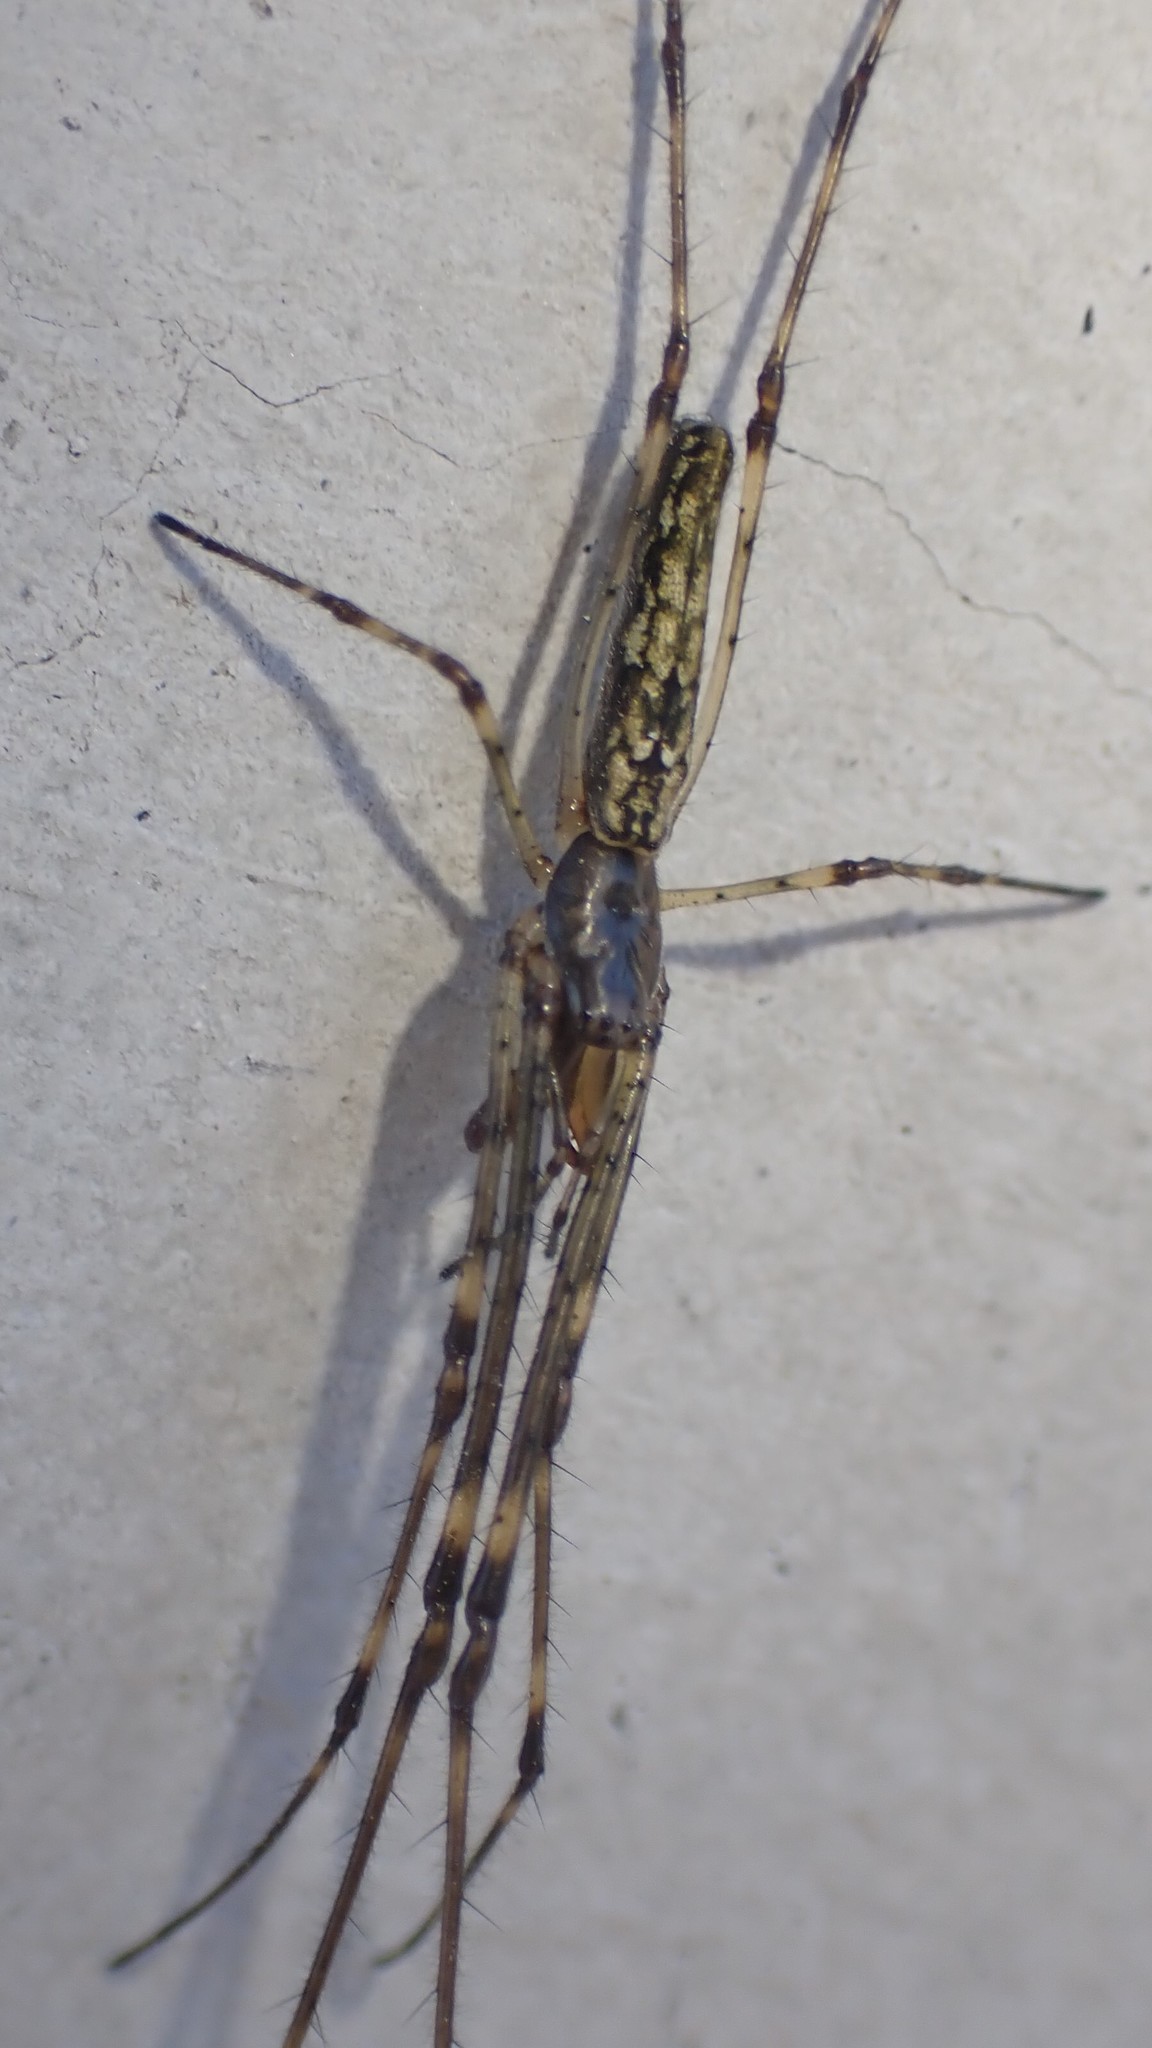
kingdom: Animalia
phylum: Arthropoda
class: Arachnida
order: Araneae
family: Tetragnathidae
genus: Tetragnatha
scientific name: Tetragnatha
